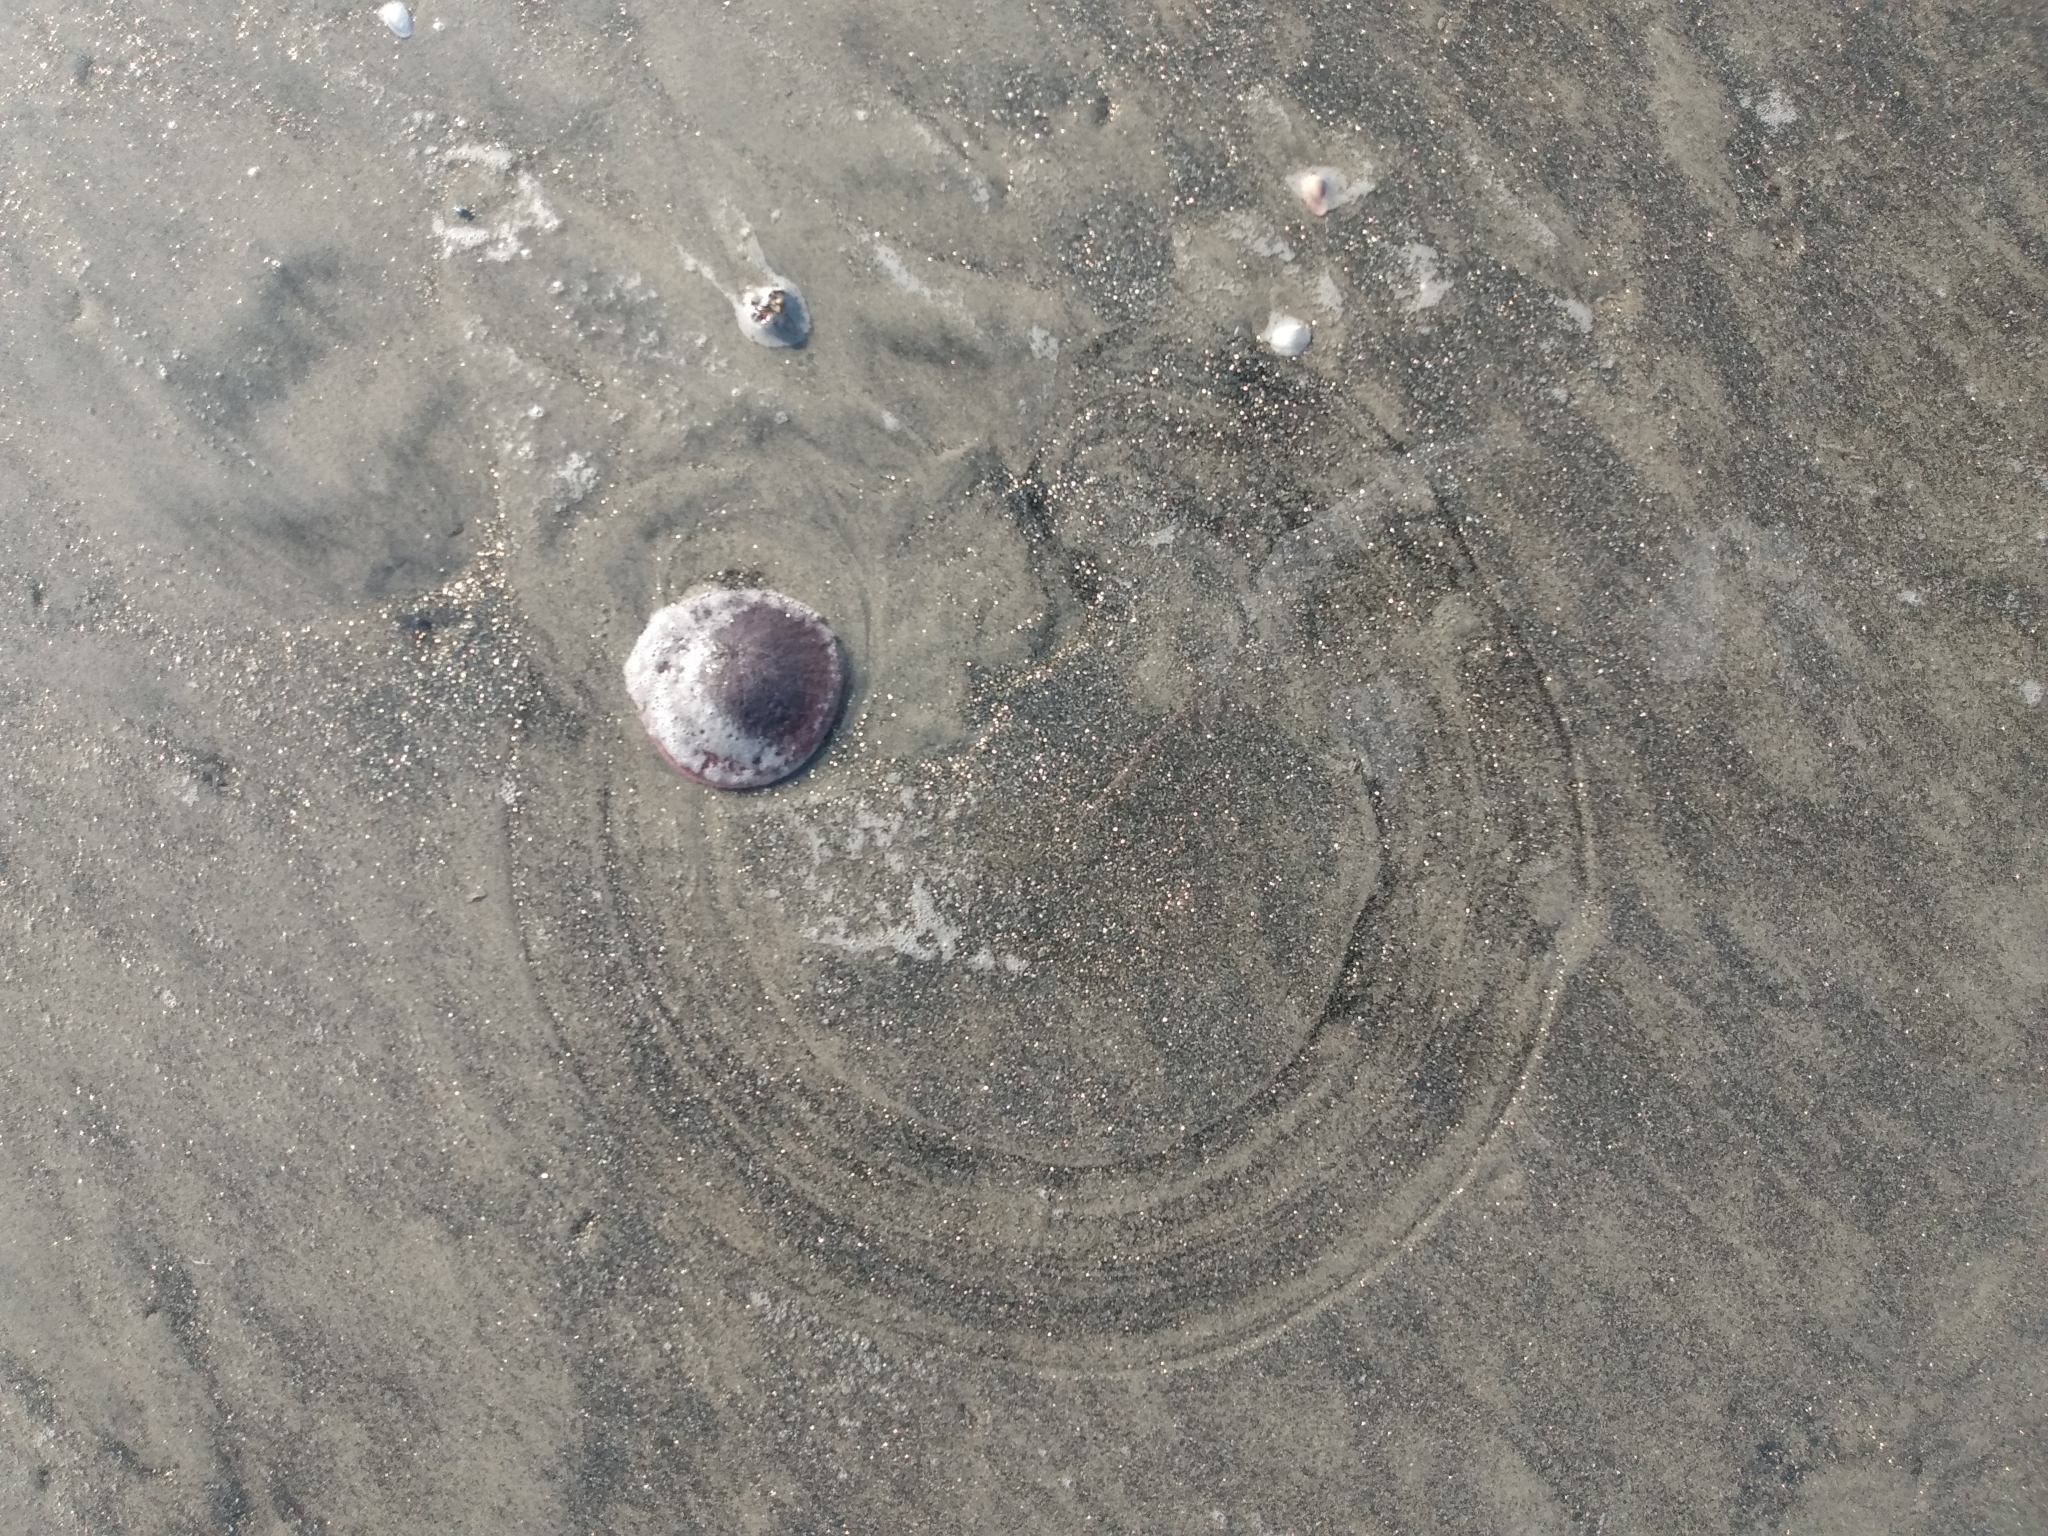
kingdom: Animalia
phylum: Echinodermata
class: Echinoidea
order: Echinolampadacea
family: Dendrasteridae
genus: Dendraster
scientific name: Dendraster excentricus
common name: Eccentric sand dollar sea urchin
